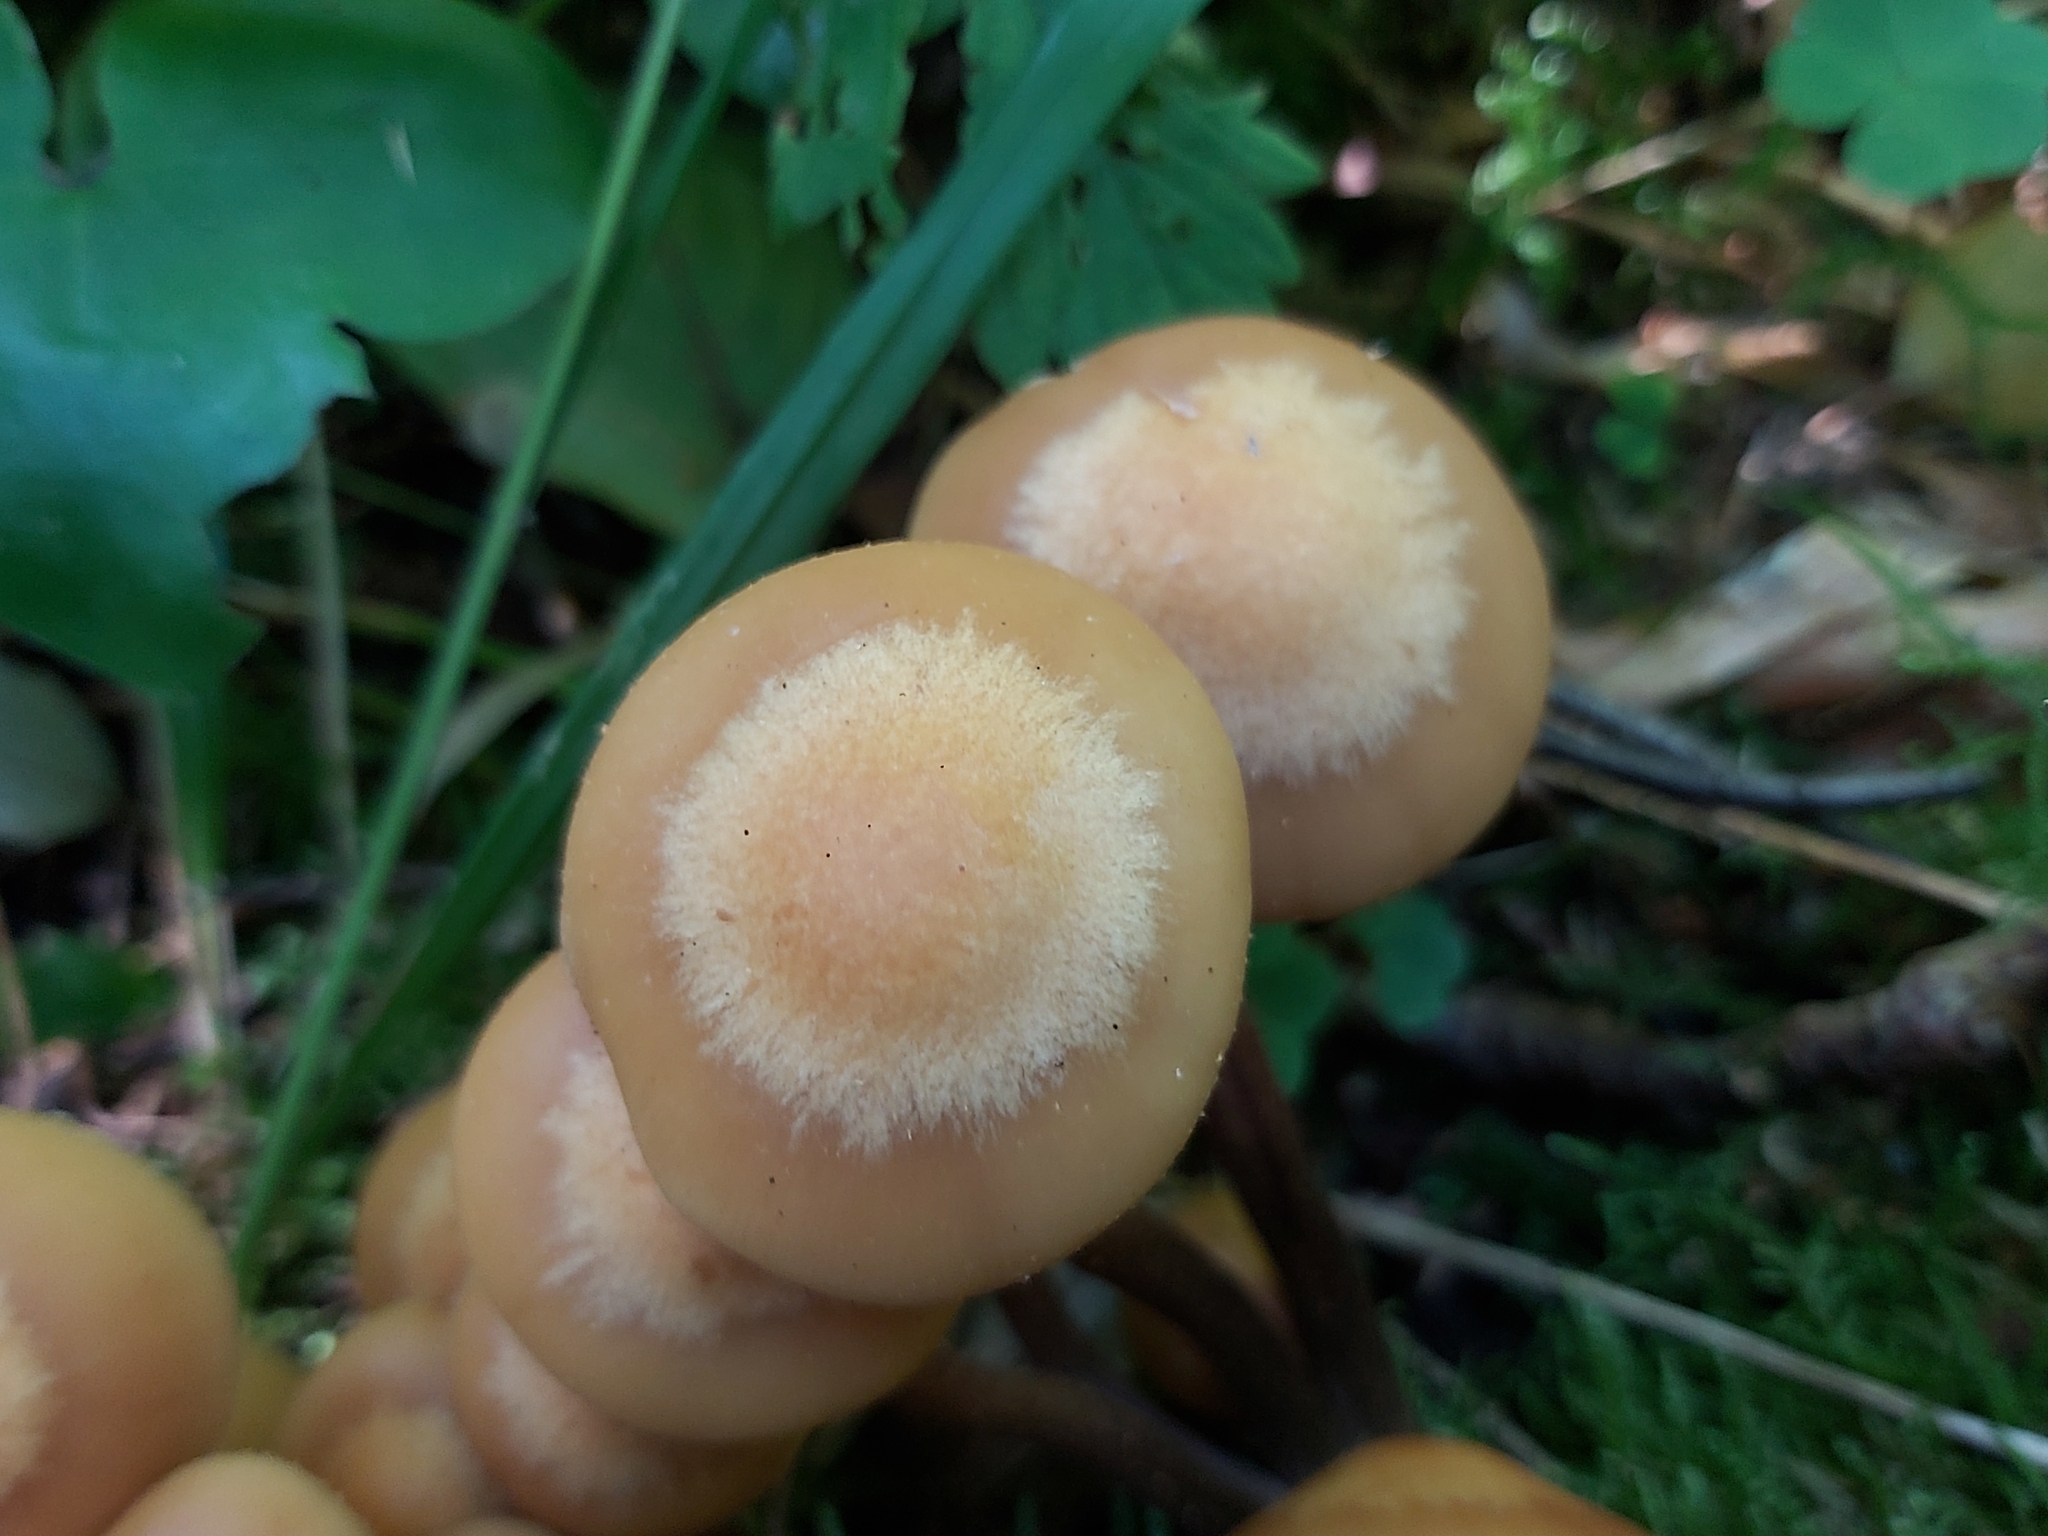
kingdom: Fungi
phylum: Basidiomycota
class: Agaricomycetes
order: Agaricales
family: Strophariaceae
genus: Kuehneromyces
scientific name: Kuehneromyces mutabilis
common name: Sheathed woodtuft
